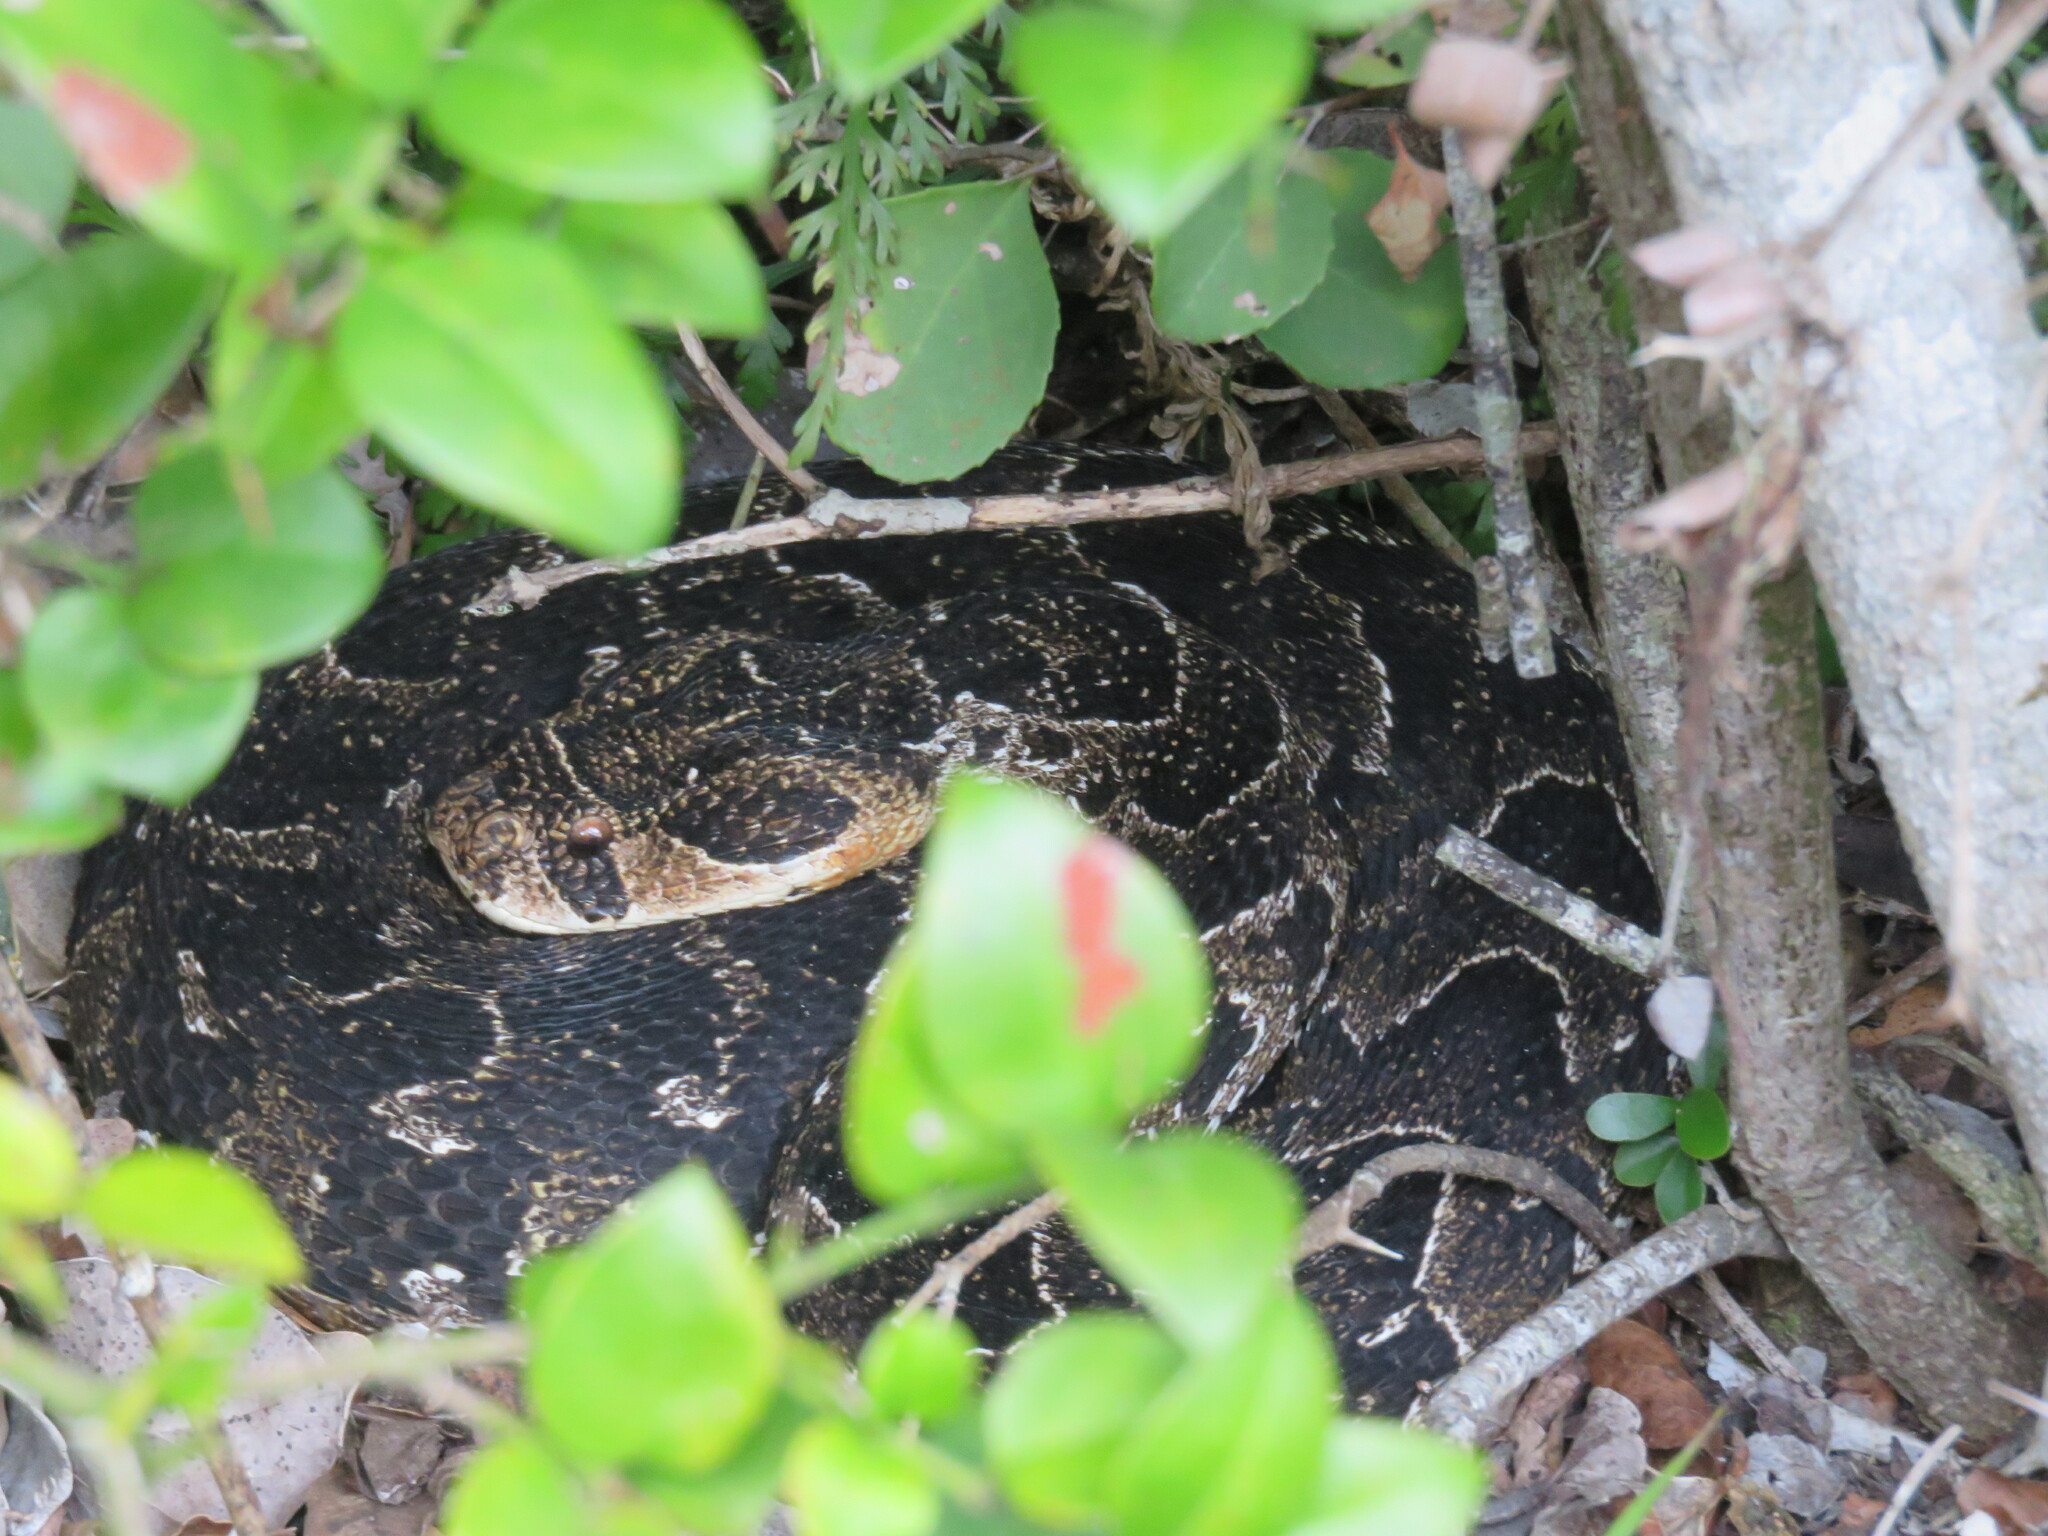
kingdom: Animalia
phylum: Chordata
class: Squamata
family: Viperidae
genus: Bitis
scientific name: Bitis arietans
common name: Puff adder
